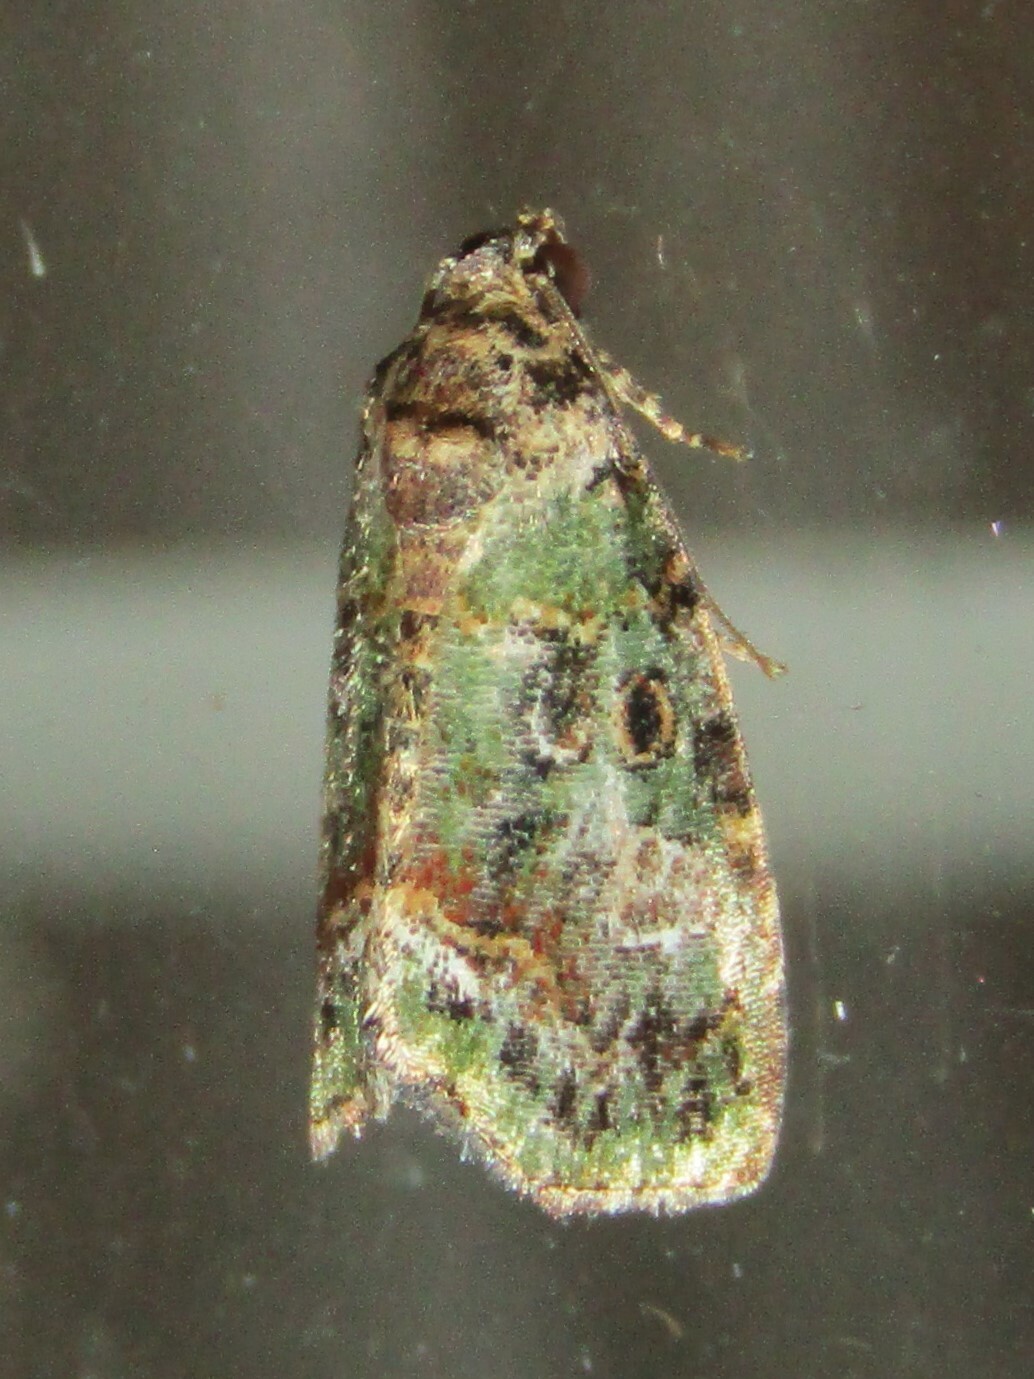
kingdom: Animalia
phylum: Arthropoda
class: Insecta
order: Lepidoptera
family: Noctuidae
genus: Lithacodia
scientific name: Lithacodia musta
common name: Small mossy glyph
